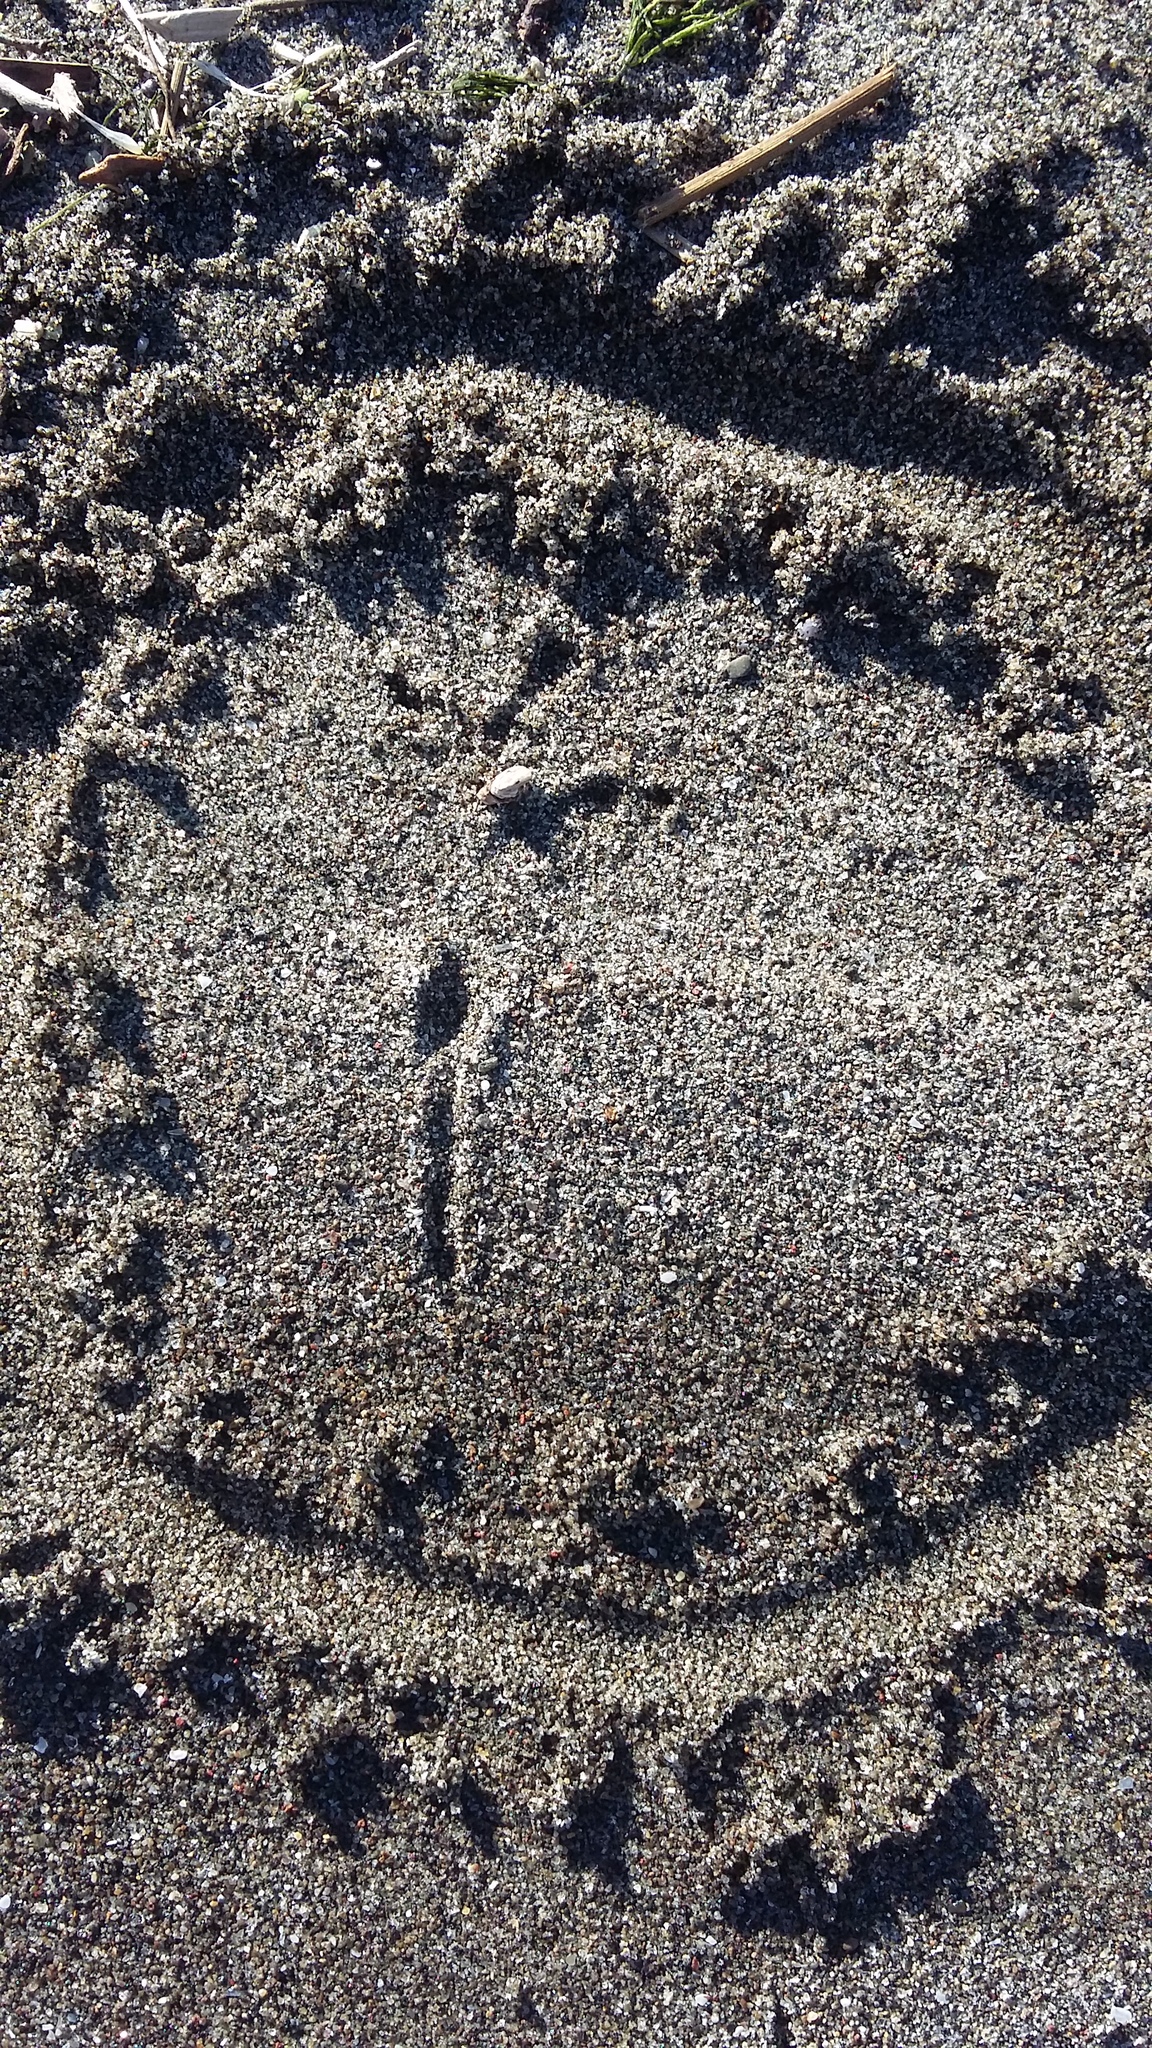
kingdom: Animalia
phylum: Chordata
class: Aves
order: Passeriformes
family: Alaudidae
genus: Alauda
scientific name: Alauda arvensis
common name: Eurasian skylark
